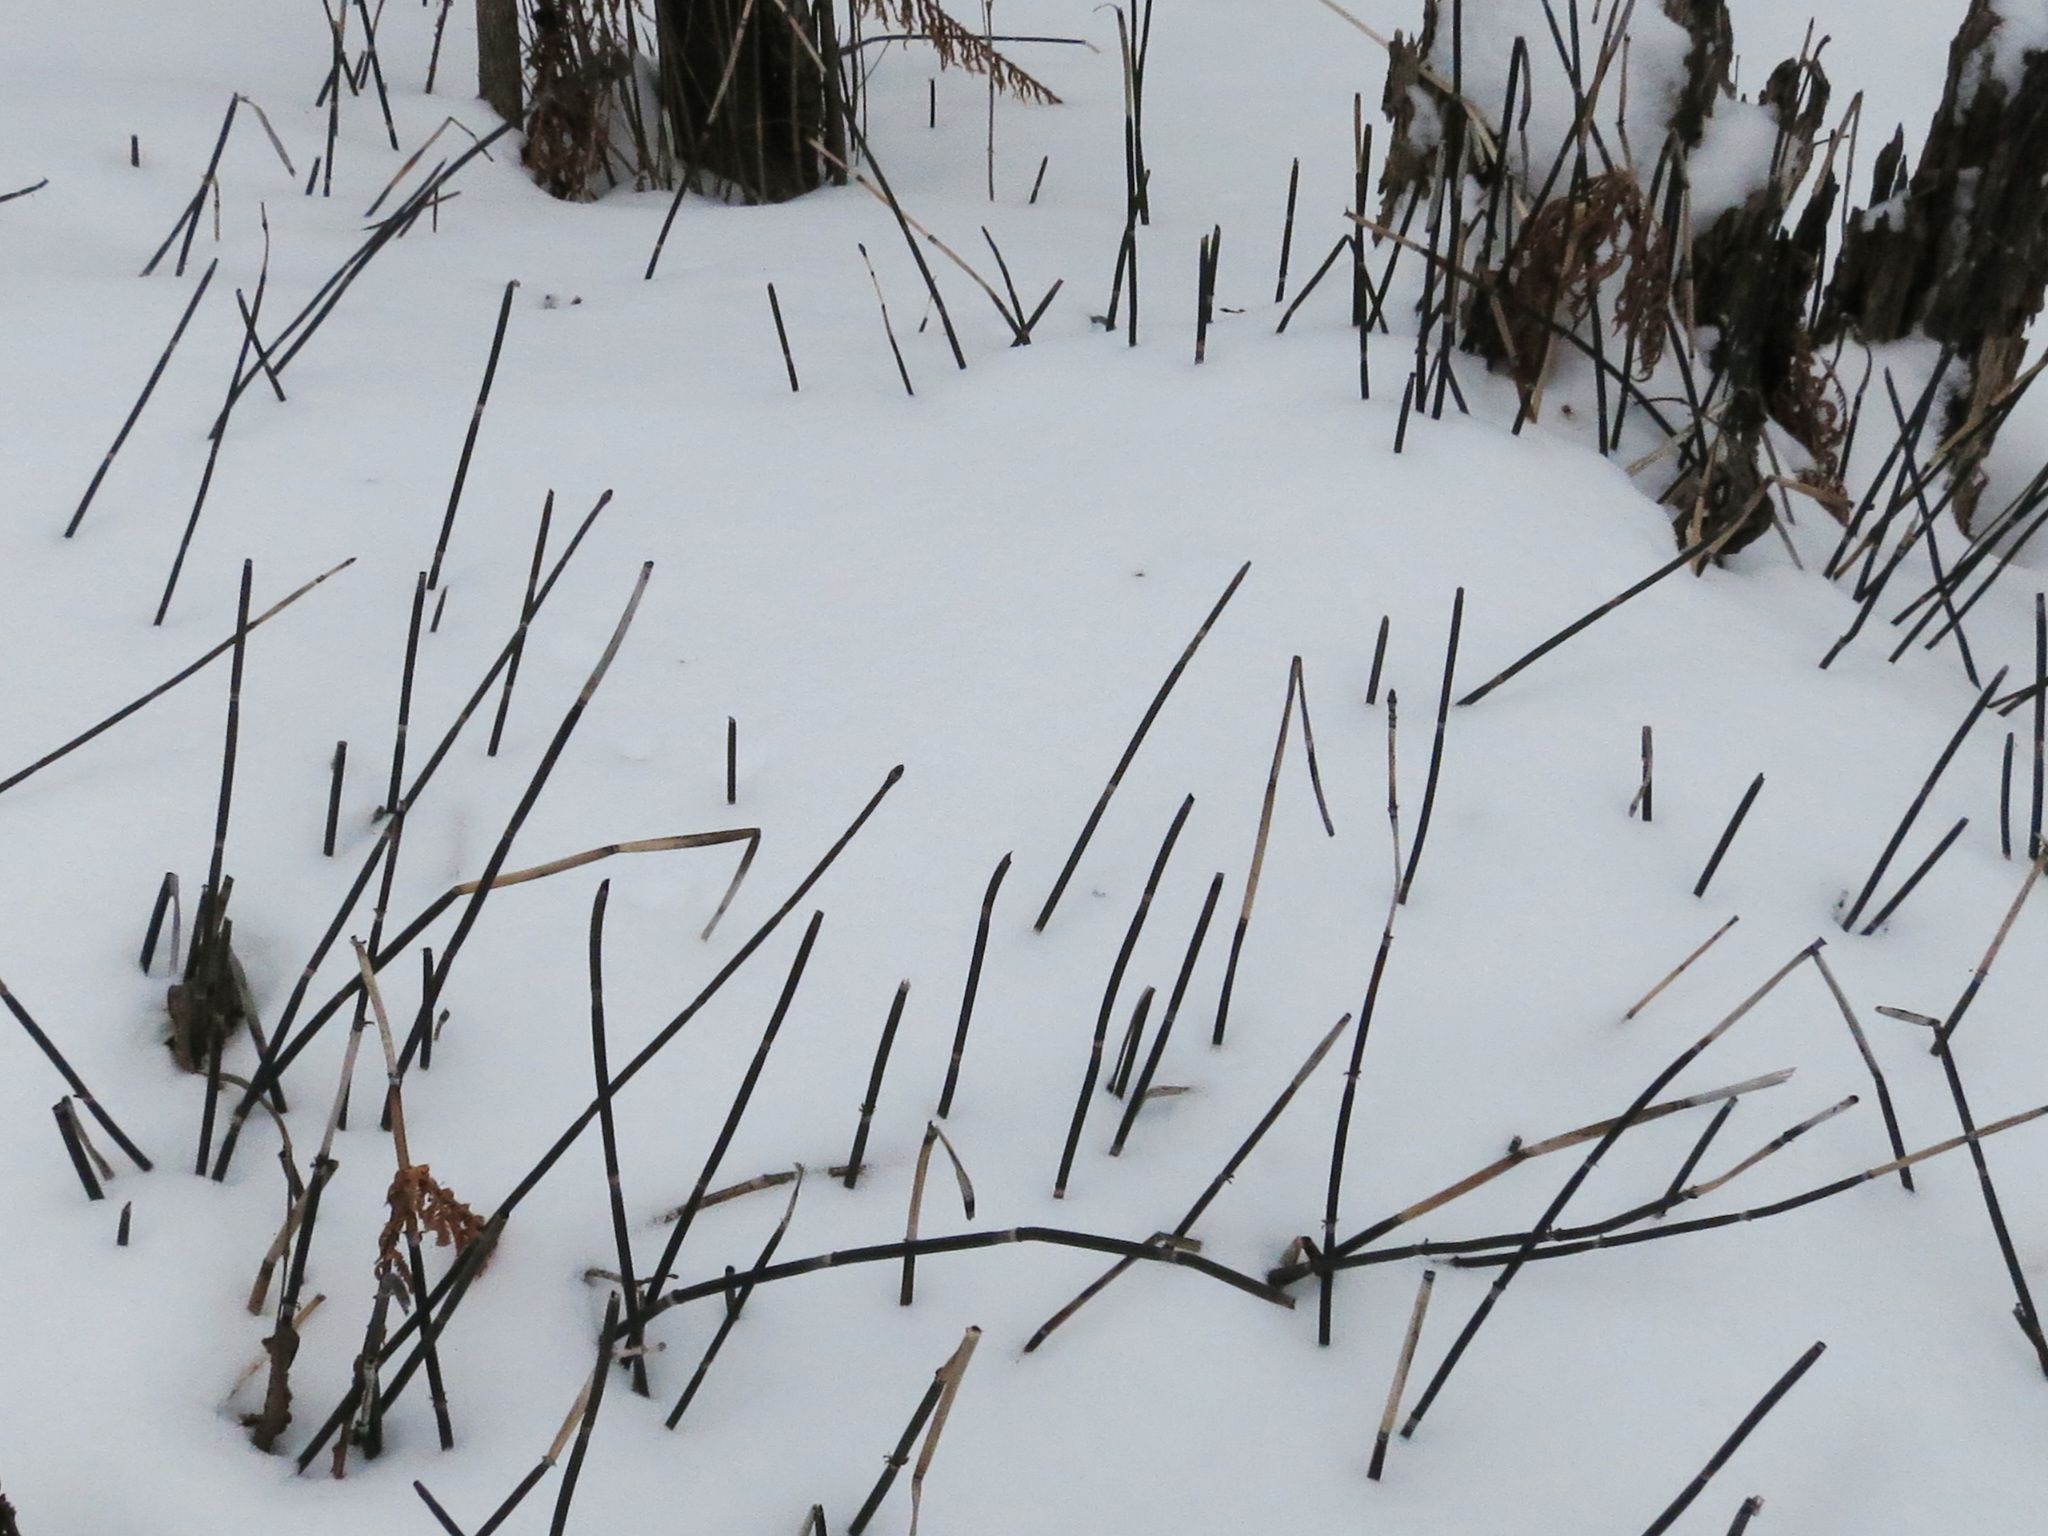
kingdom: Plantae
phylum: Tracheophyta
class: Polypodiopsida
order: Equisetales
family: Equisetaceae
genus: Equisetum
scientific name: Equisetum hyemale
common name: Rough horsetail
